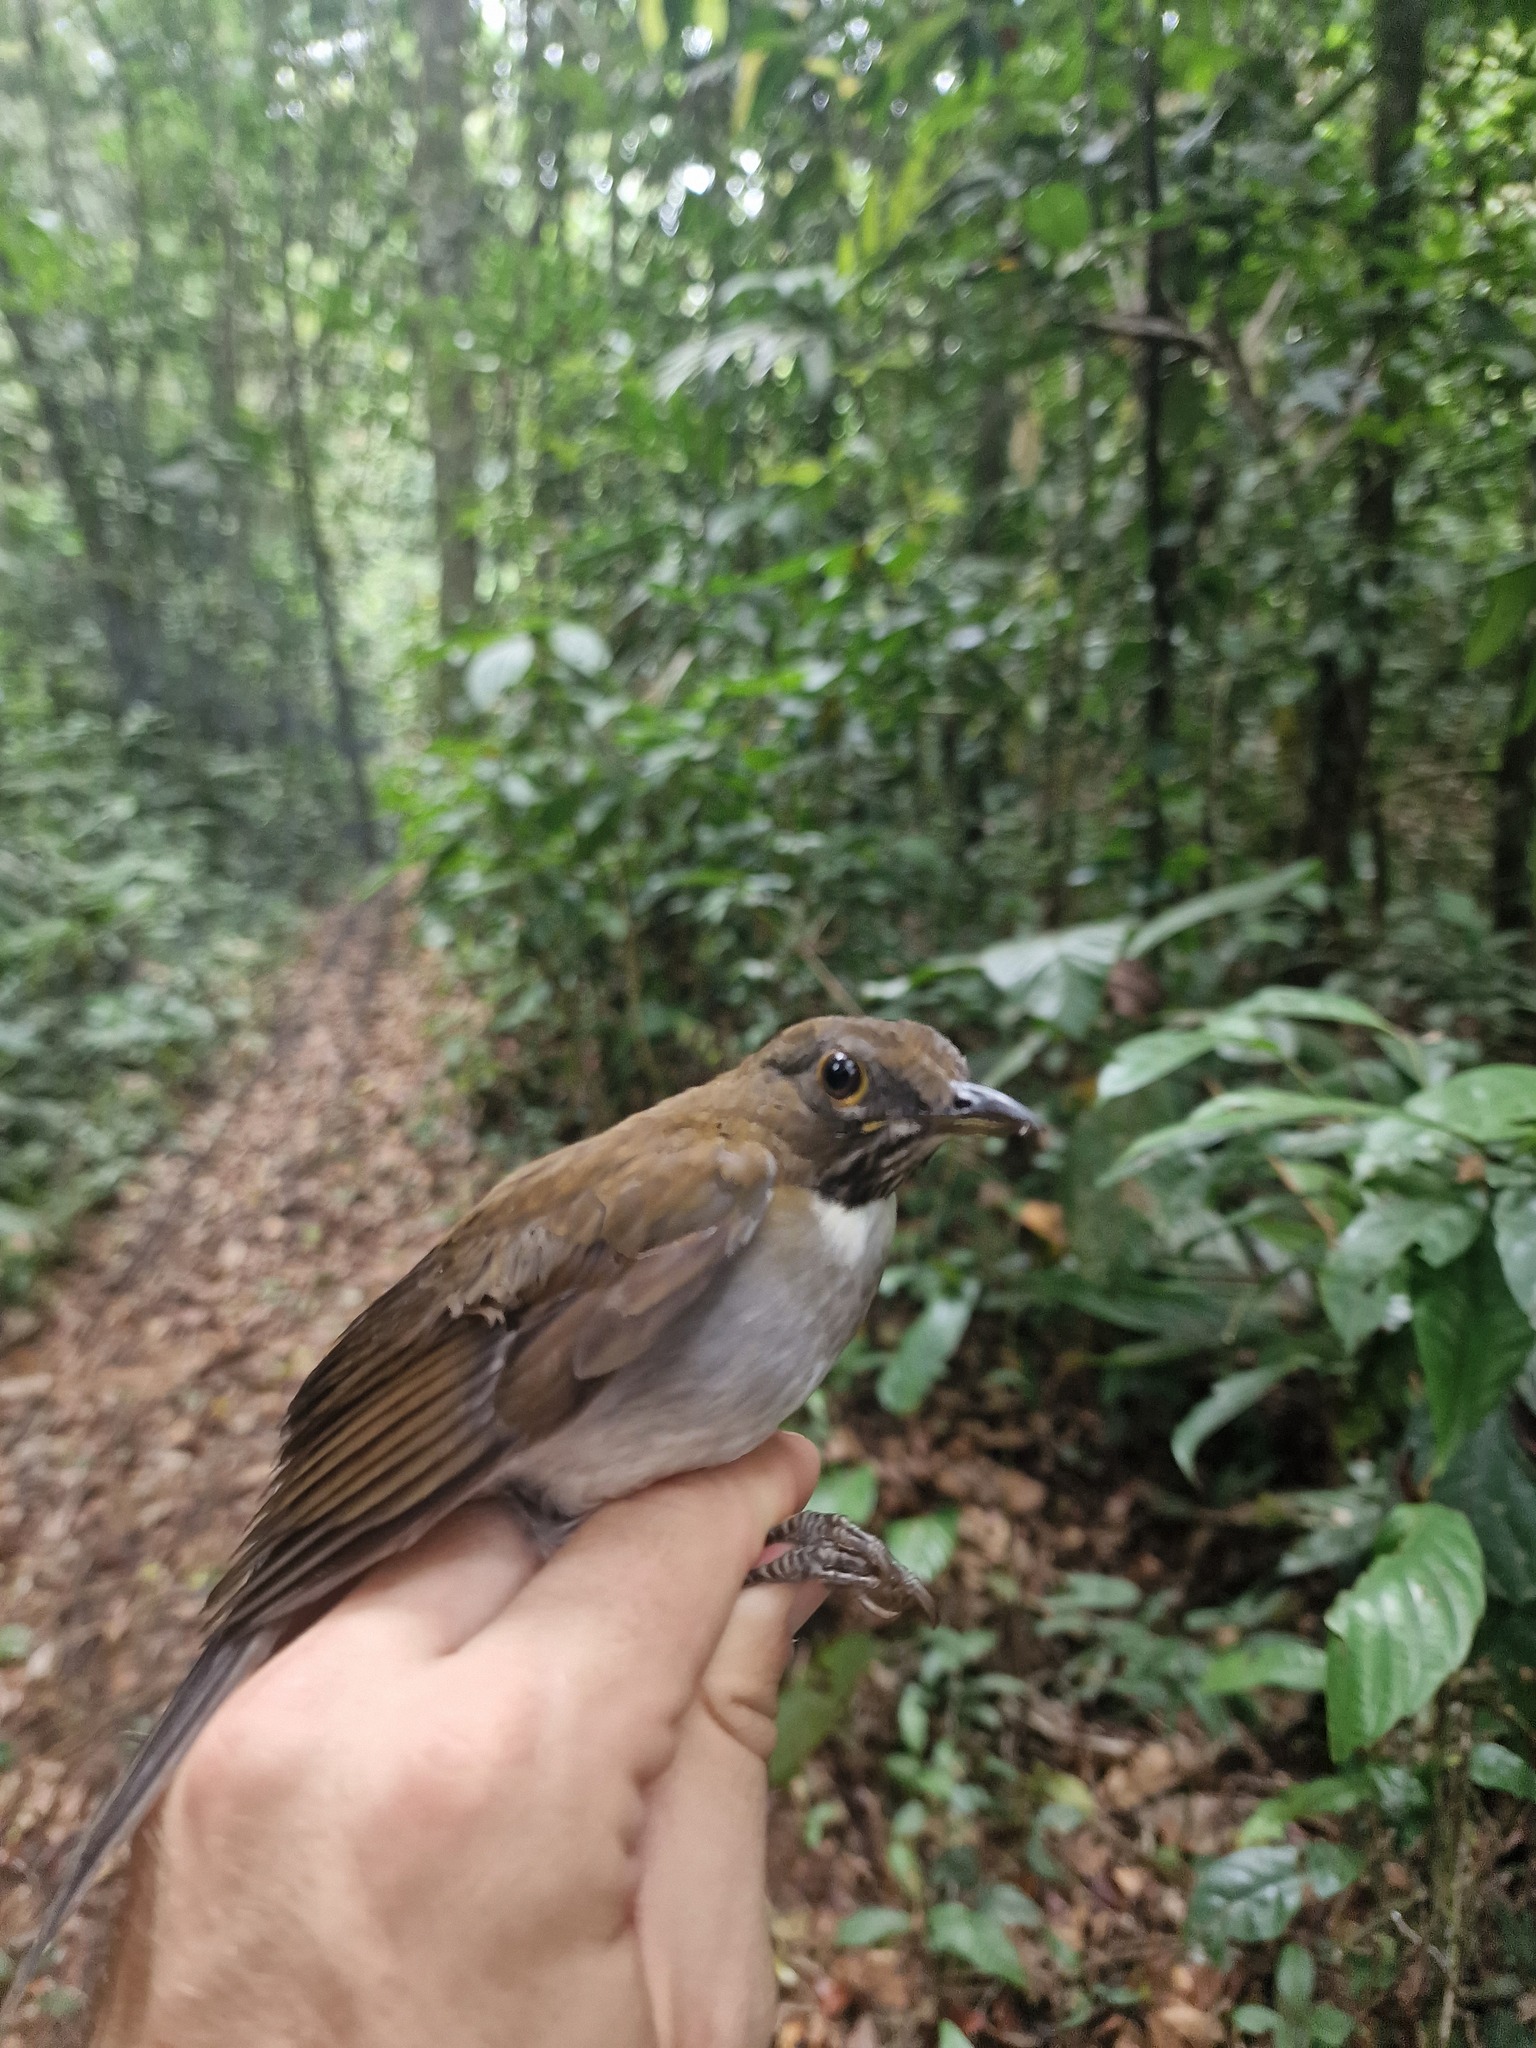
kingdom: Animalia
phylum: Chordata
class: Aves
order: Passeriformes
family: Turdidae
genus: Turdus
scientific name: Turdus albicollis
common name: White-necked thrush
